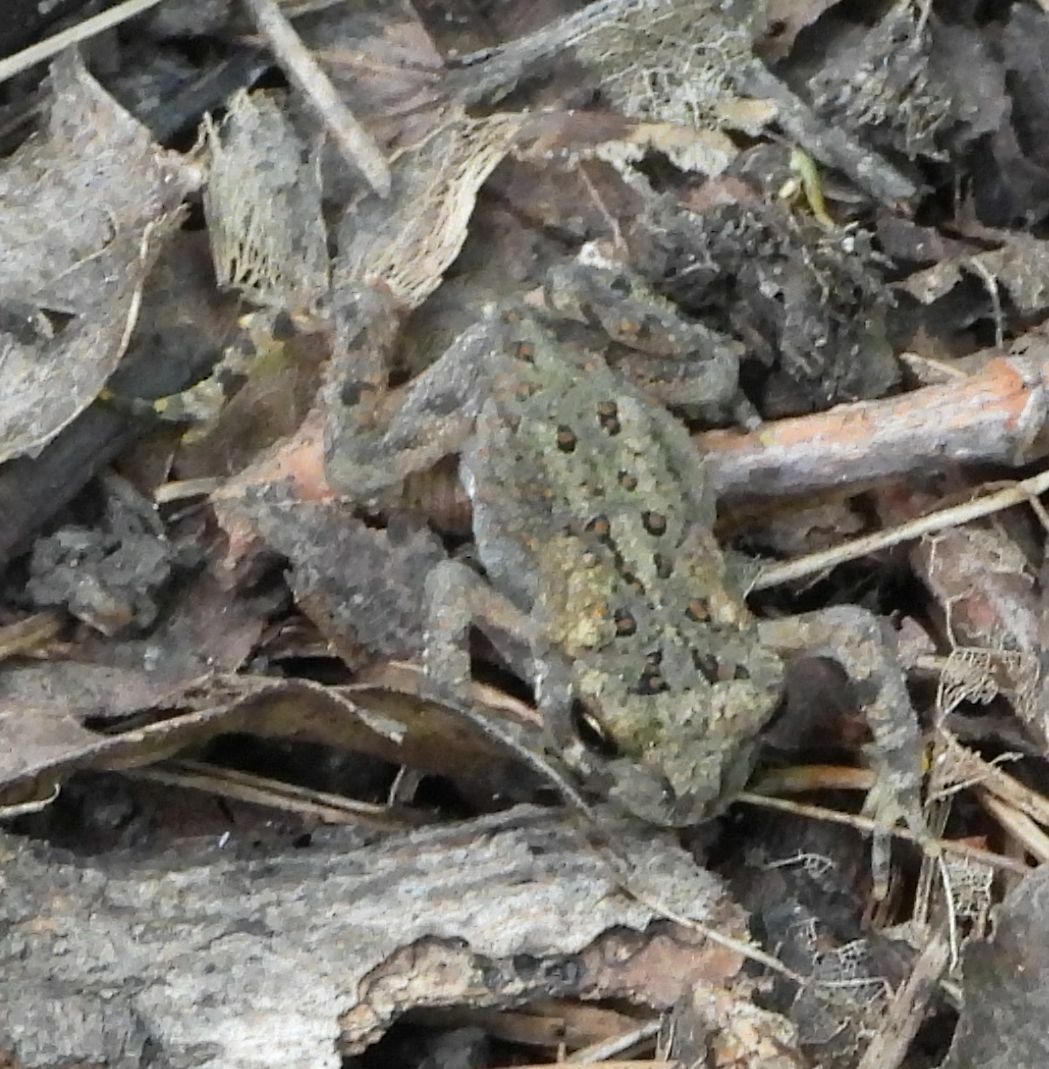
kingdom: Animalia
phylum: Chordata
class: Amphibia
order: Anura
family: Bufonidae
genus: Anaxyrus
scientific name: Anaxyrus americanus
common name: American toad
